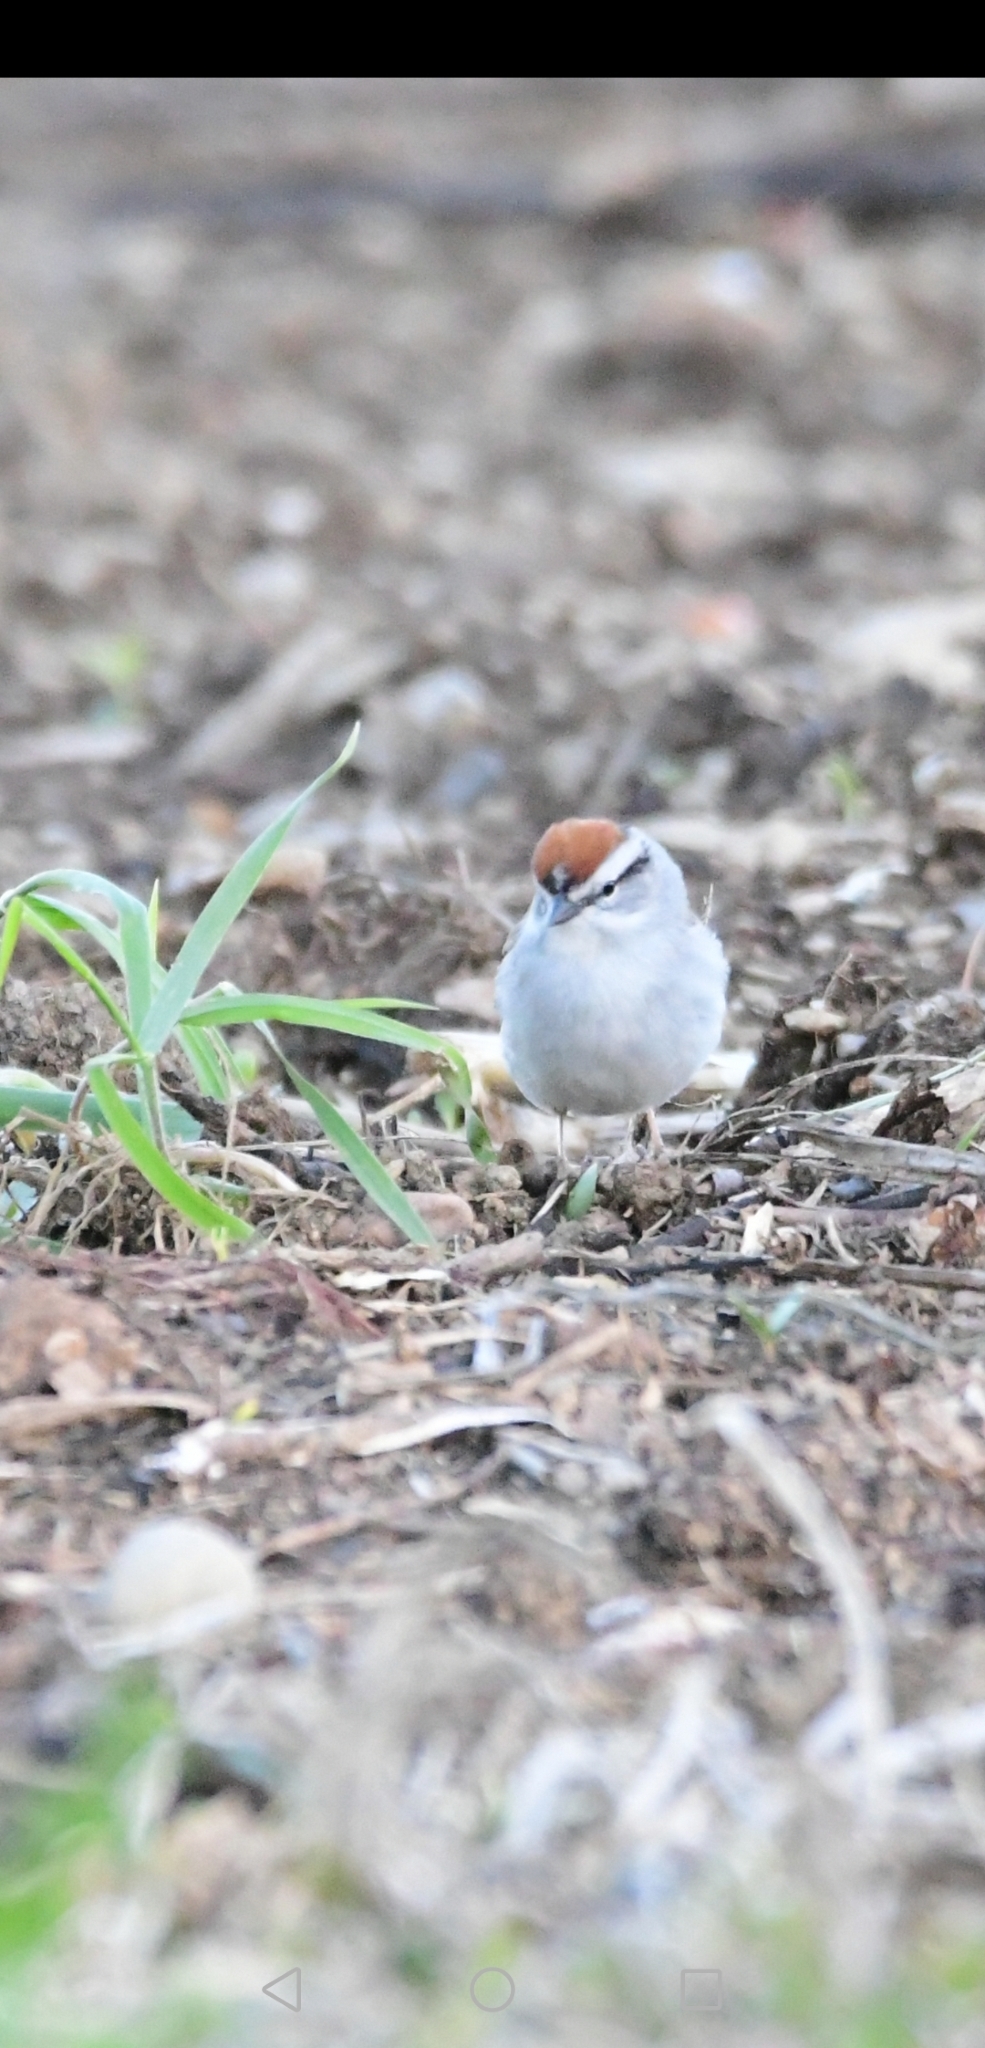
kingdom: Animalia
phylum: Chordata
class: Aves
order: Passeriformes
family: Passerellidae
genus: Spizella
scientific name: Spizella passerina
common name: Chipping sparrow
